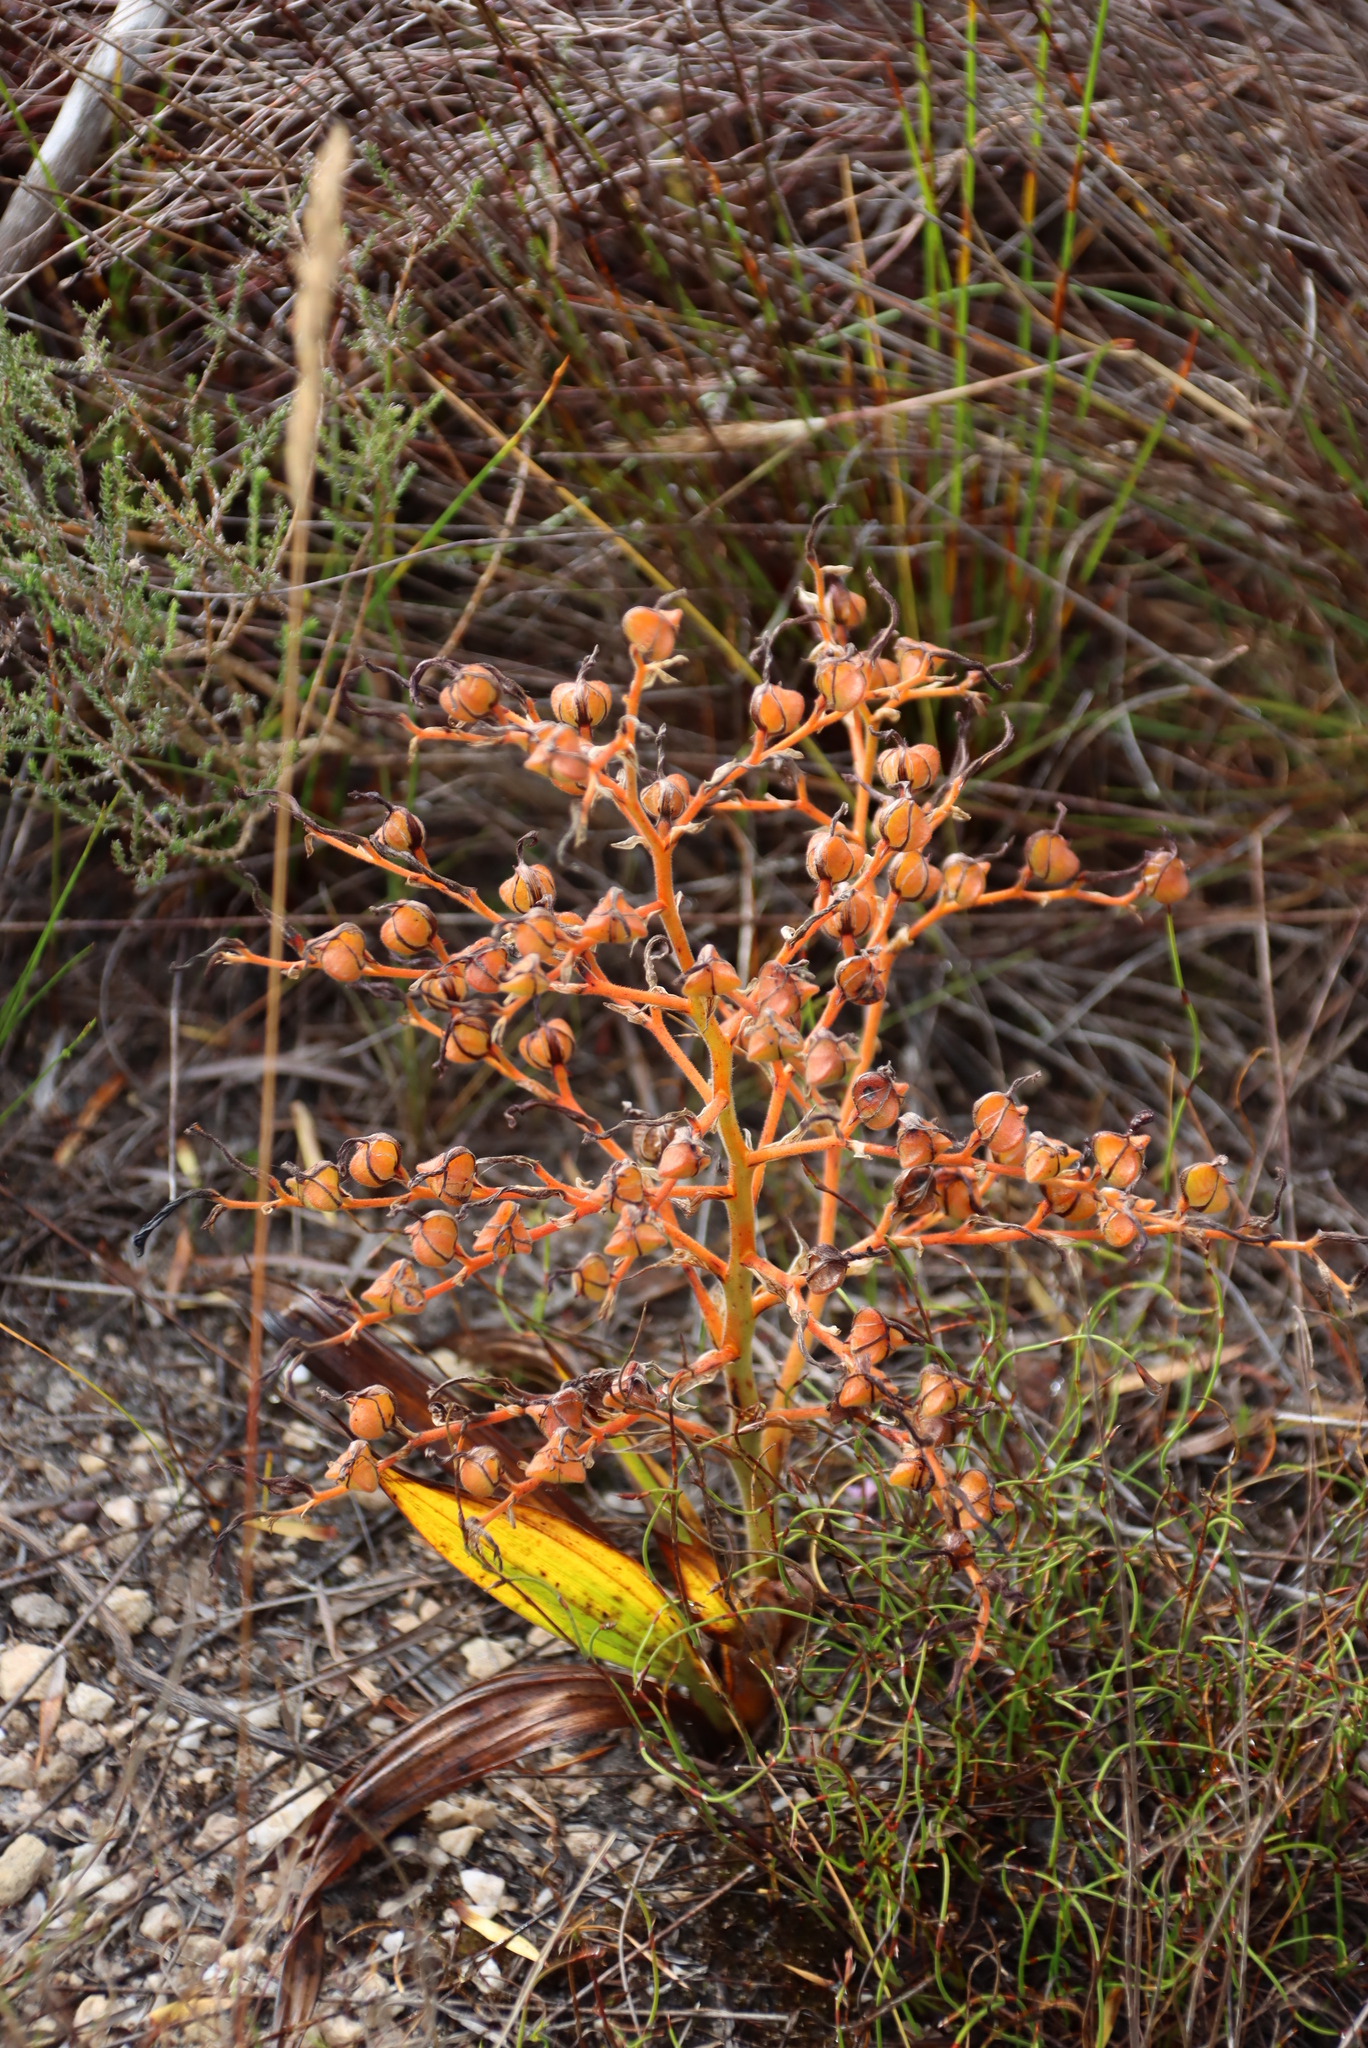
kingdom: Plantae
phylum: Tracheophyta
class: Liliopsida
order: Commelinales
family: Haemodoraceae
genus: Wachendorfia
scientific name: Wachendorfia paniculata
